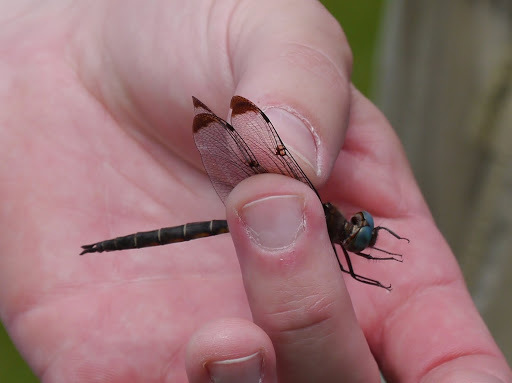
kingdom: Animalia
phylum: Arthropoda
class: Insecta
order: Odonata
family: Corduliidae
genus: Epitheca
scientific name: Epitheca princeps
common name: Prince baskettail
